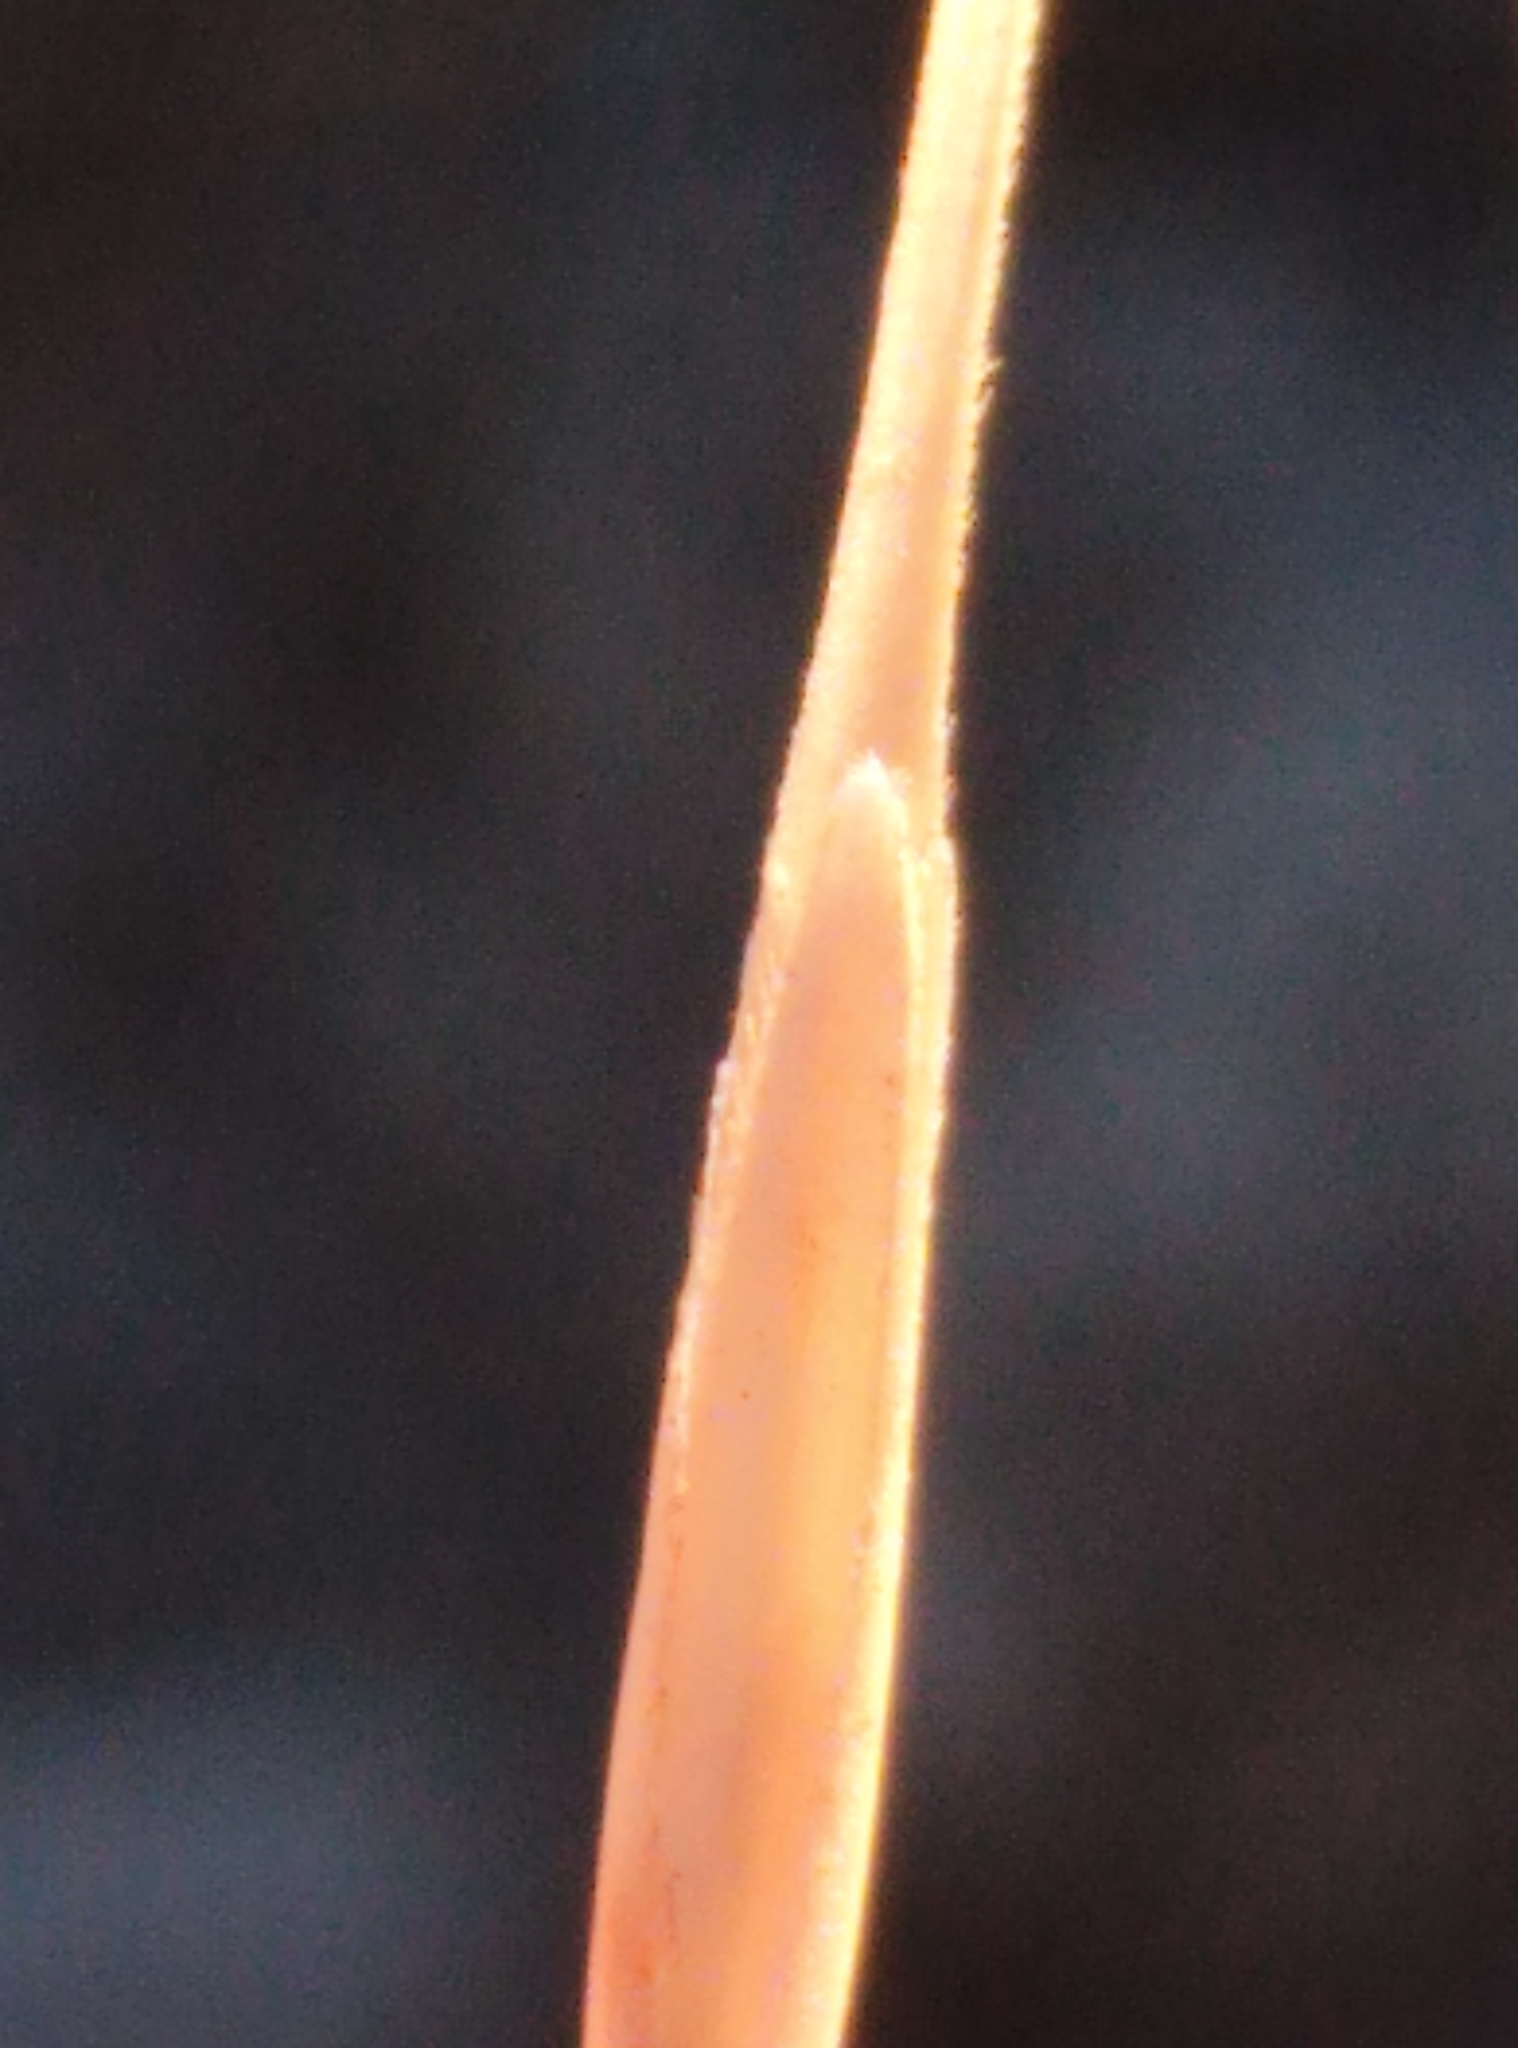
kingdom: Plantae
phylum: Tracheophyta
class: Liliopsida
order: Poales
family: Poaceae
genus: Anthosachne
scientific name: Anthosachne solandri
